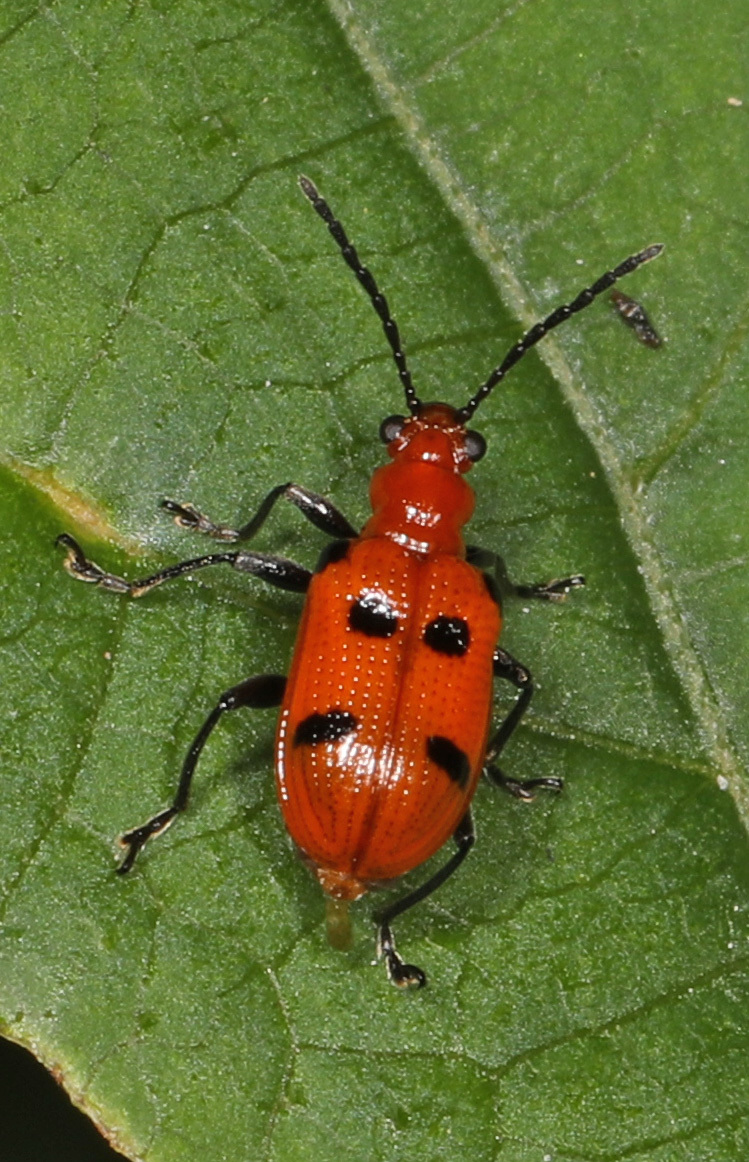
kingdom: Animalia
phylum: Arthropoda
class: Insecta
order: Coleoptera
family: Chrysomelidae
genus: Neolema
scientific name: Neolema sexpunctata
